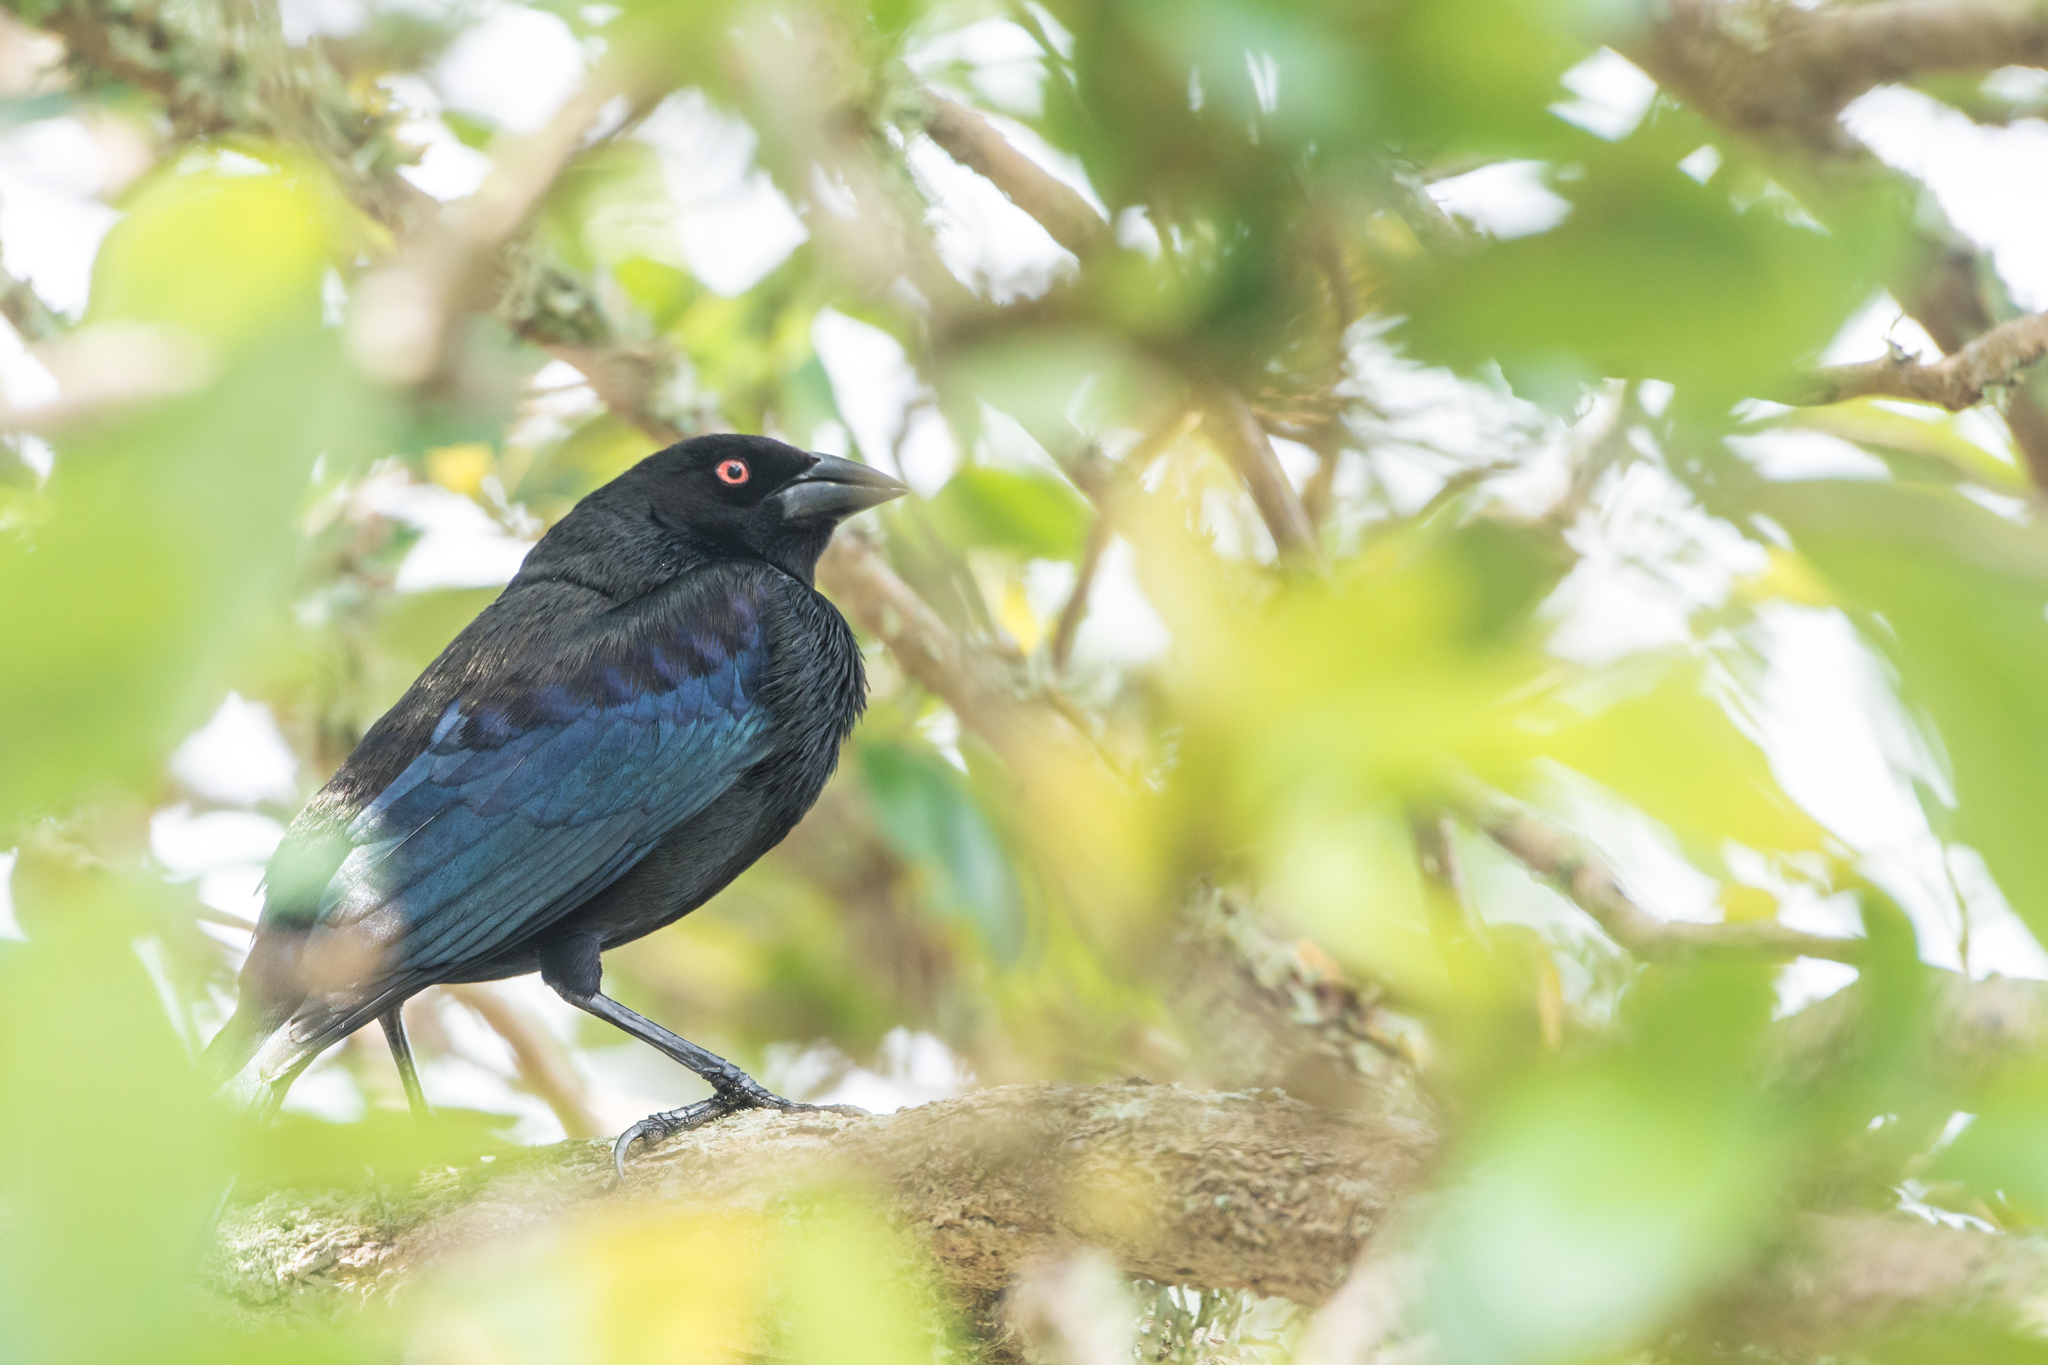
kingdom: Animalia
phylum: Chordata
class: Aves
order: Passeriformes
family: Icteridae
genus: Molothrus
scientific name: Molothrus aeneus
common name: Bronzed cowbird
